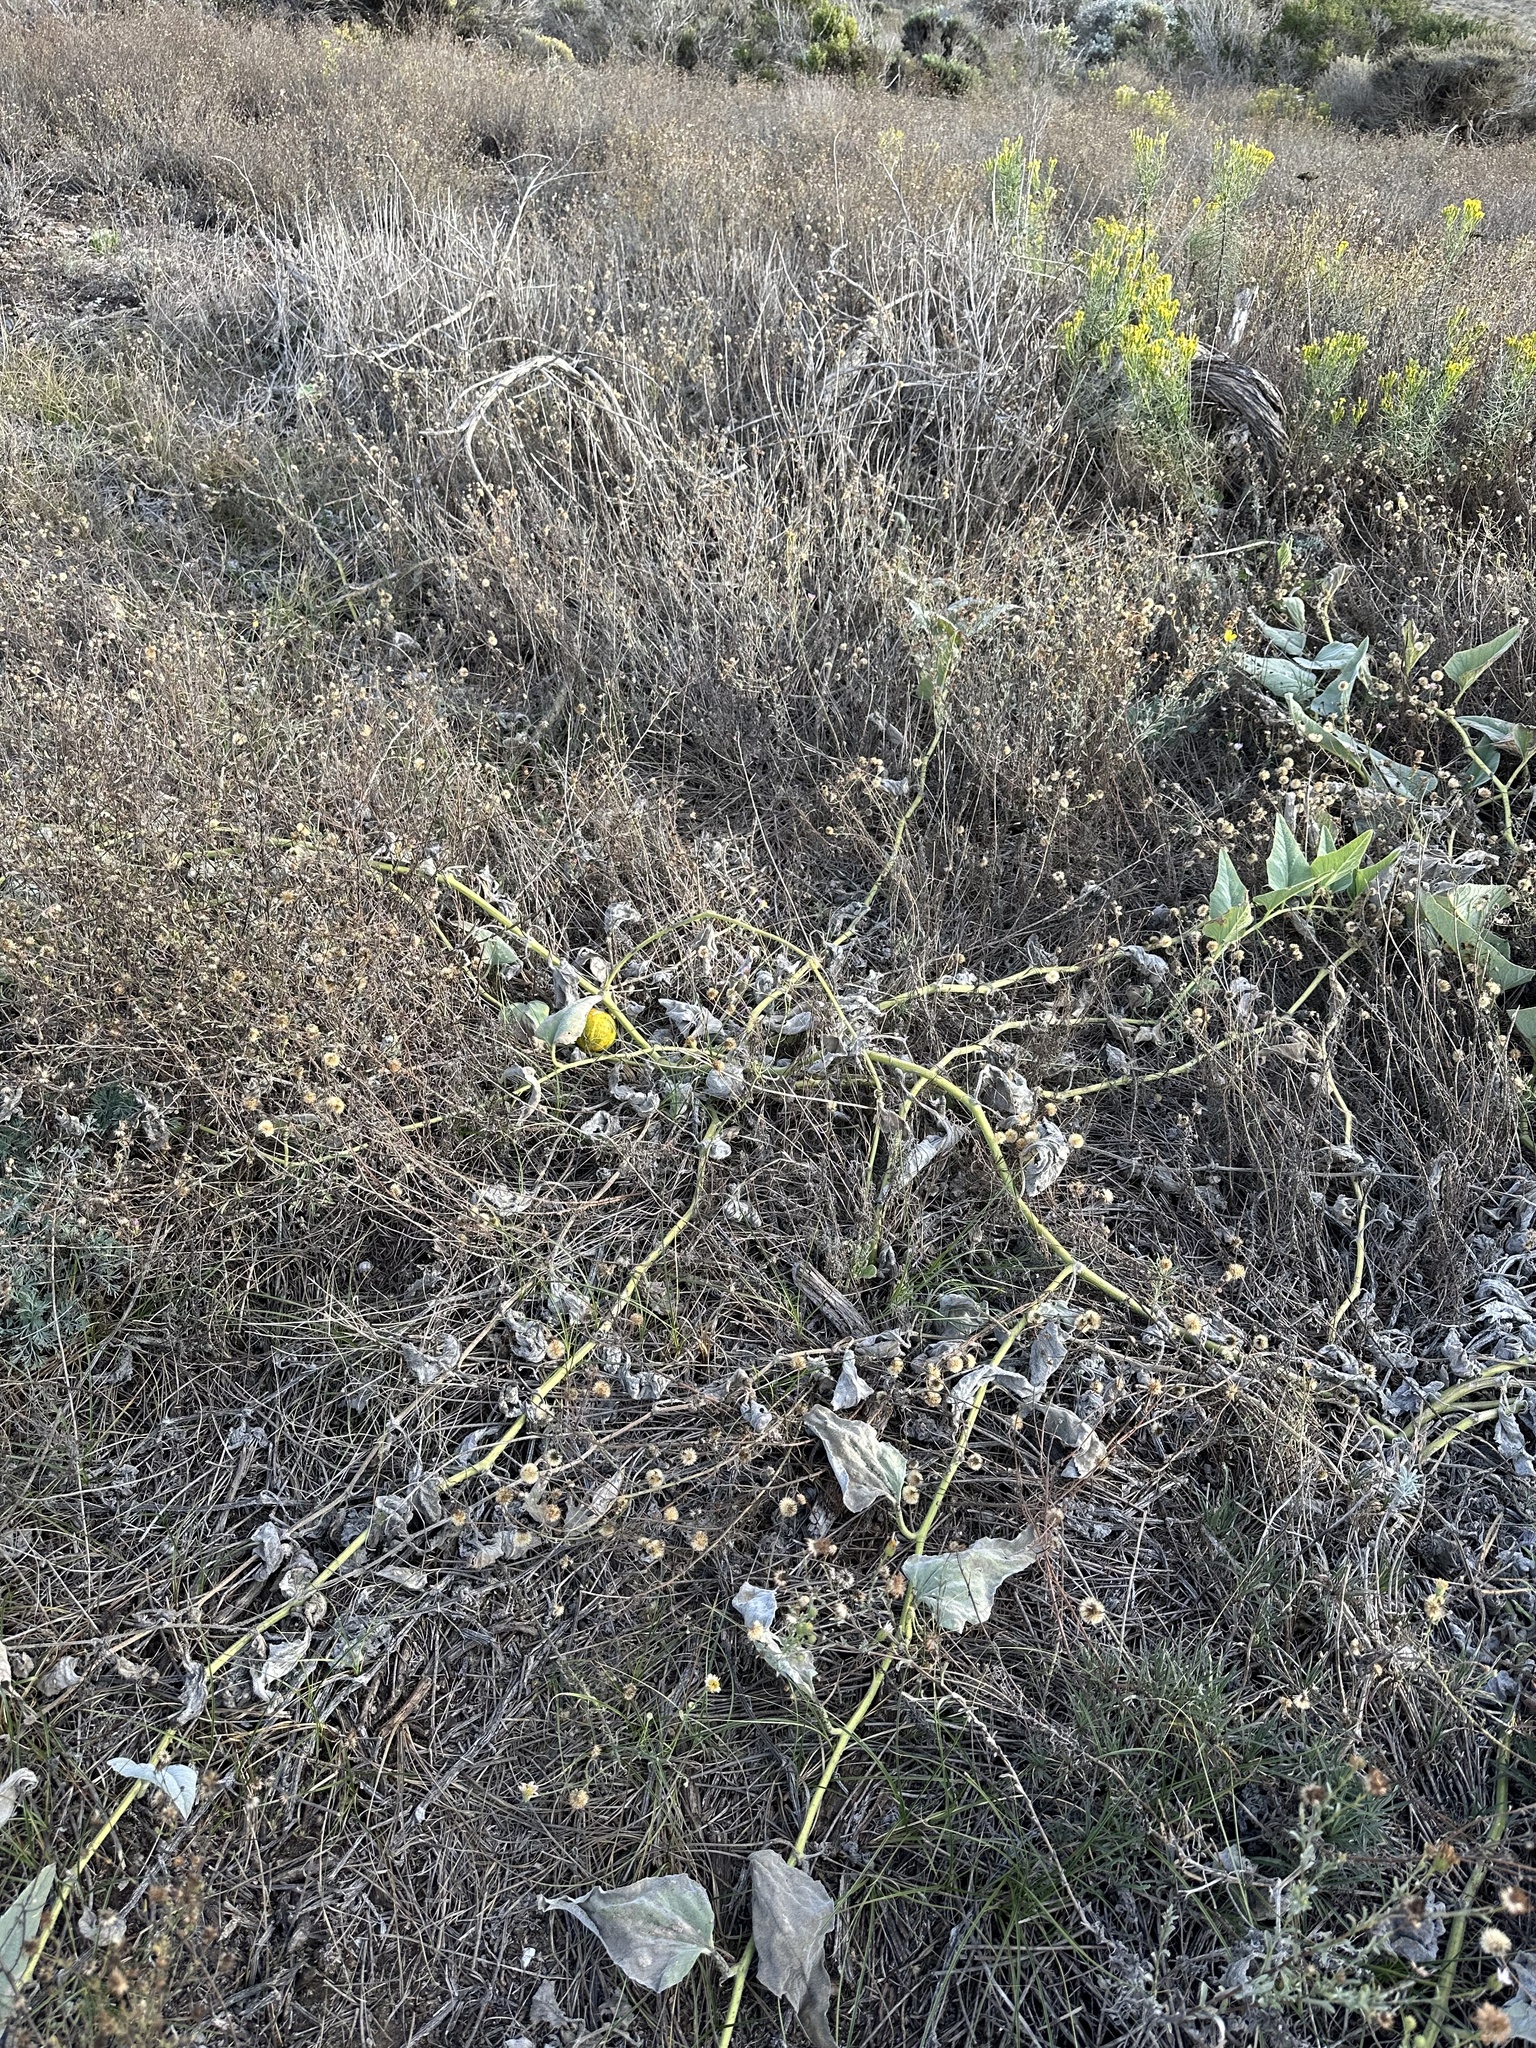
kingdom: Plantae
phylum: Tracheophyta
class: Magnoliopsida
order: Cucurbitales
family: Cucurbitaceae
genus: Cucurbita
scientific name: Cucurbita foetidissima
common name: Buffalo gourd
